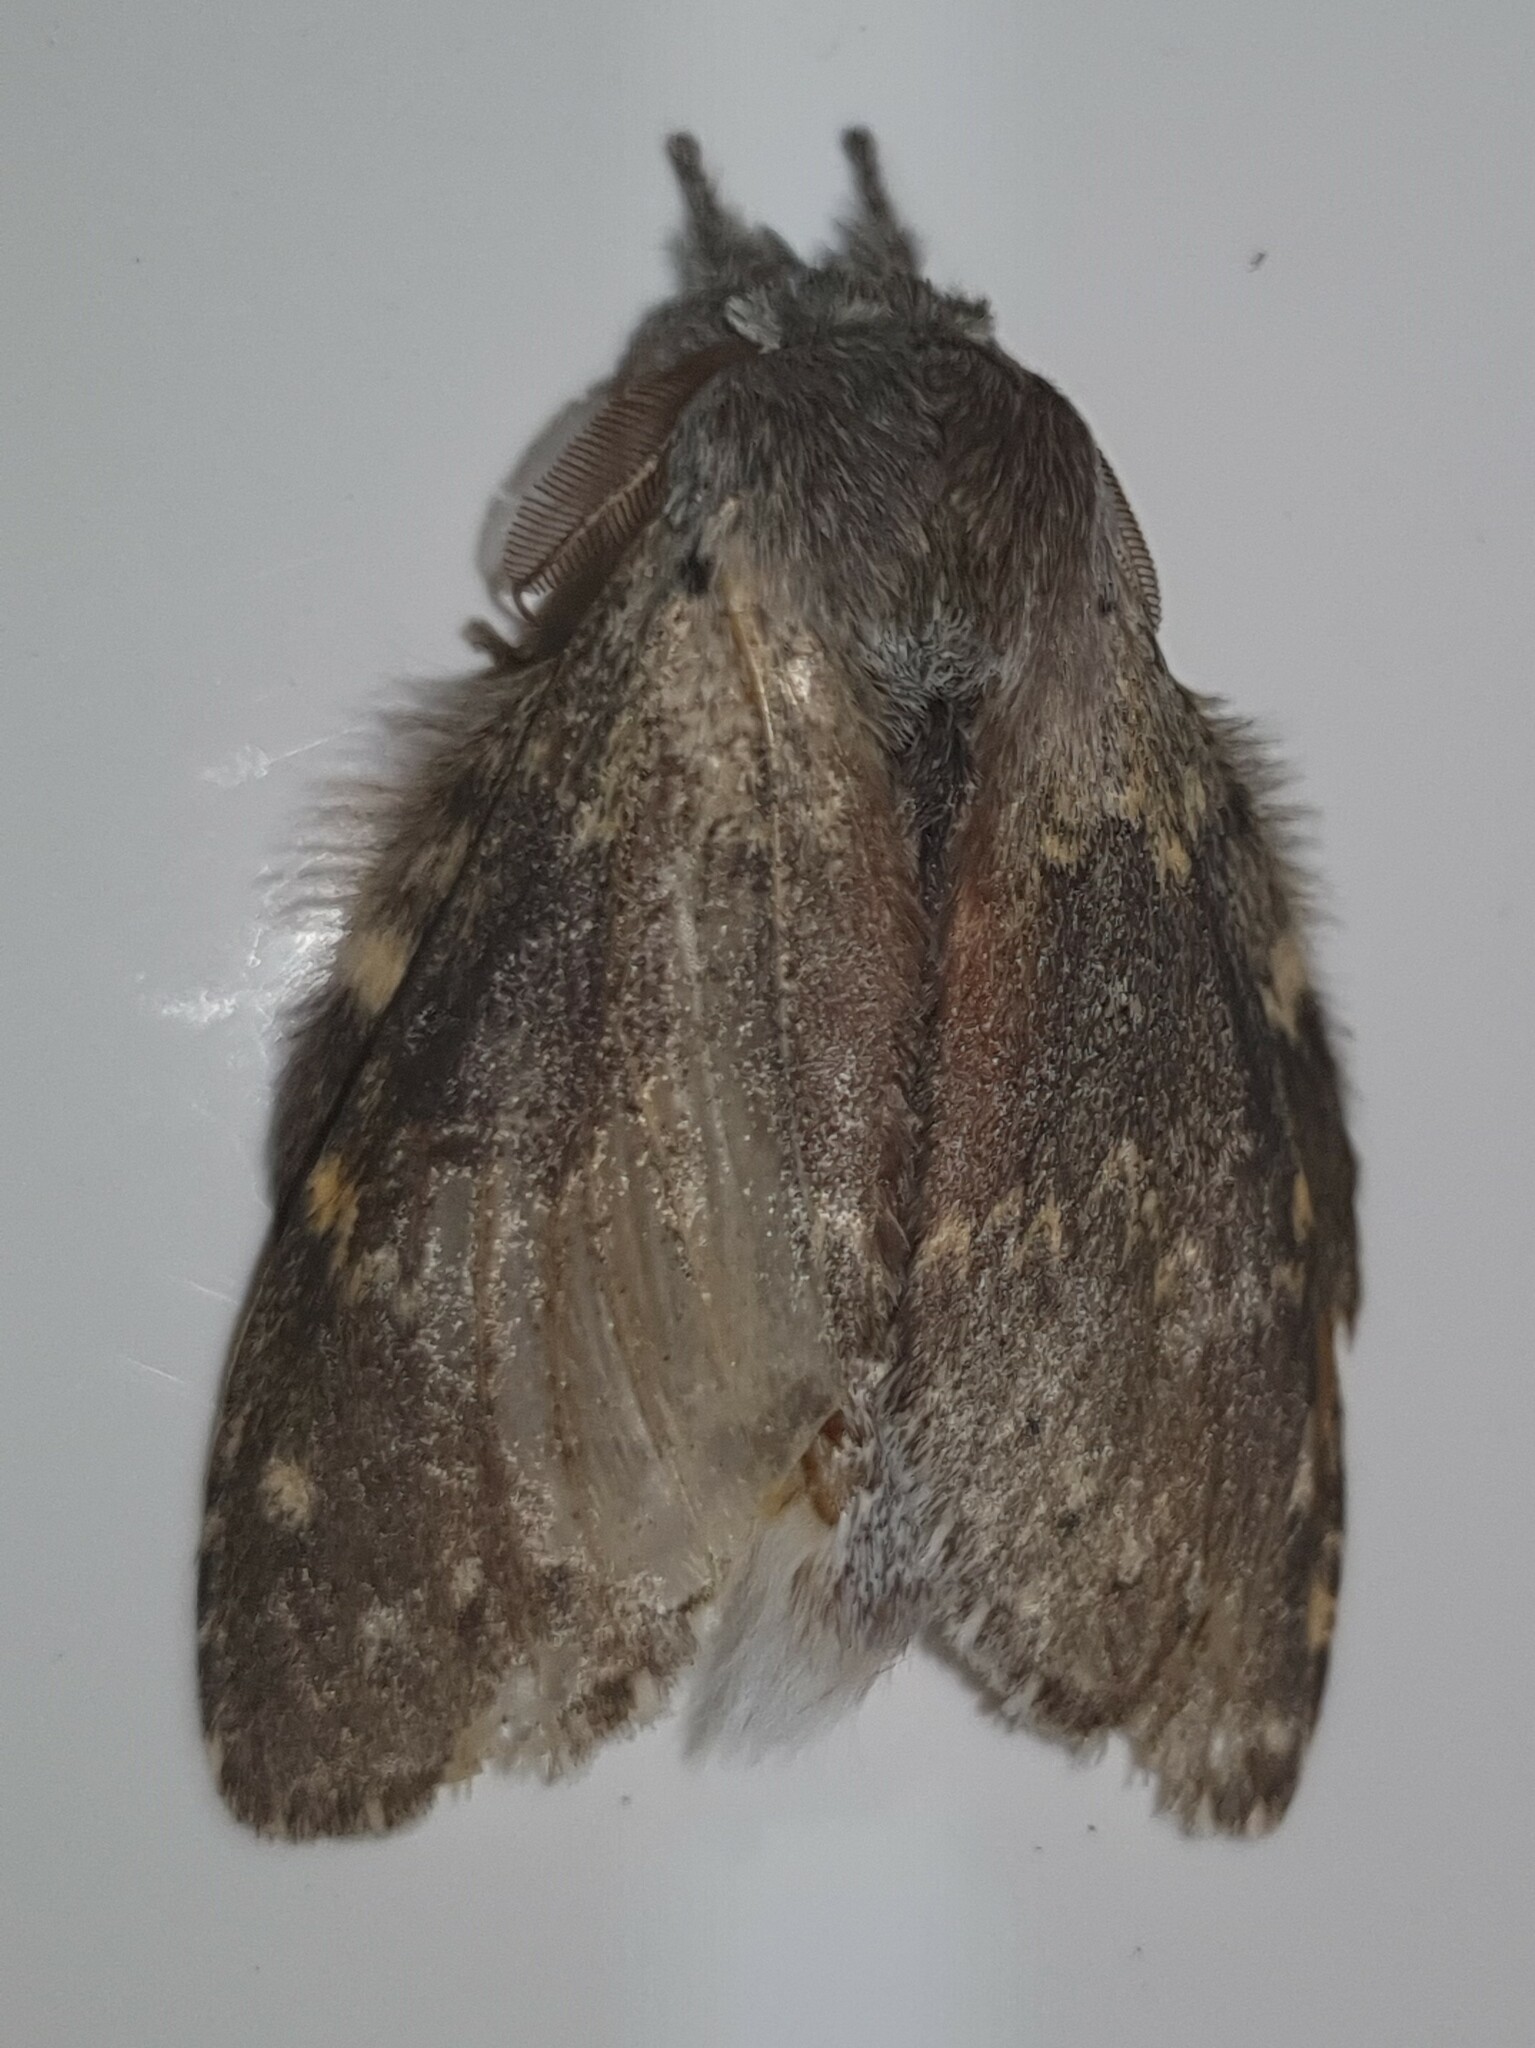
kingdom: Animalia
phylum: Arthropoda
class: Insecta
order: Lepidoptera
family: Notodontidae
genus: Stauropus
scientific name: Stauropus fagi
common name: Lobster moth
